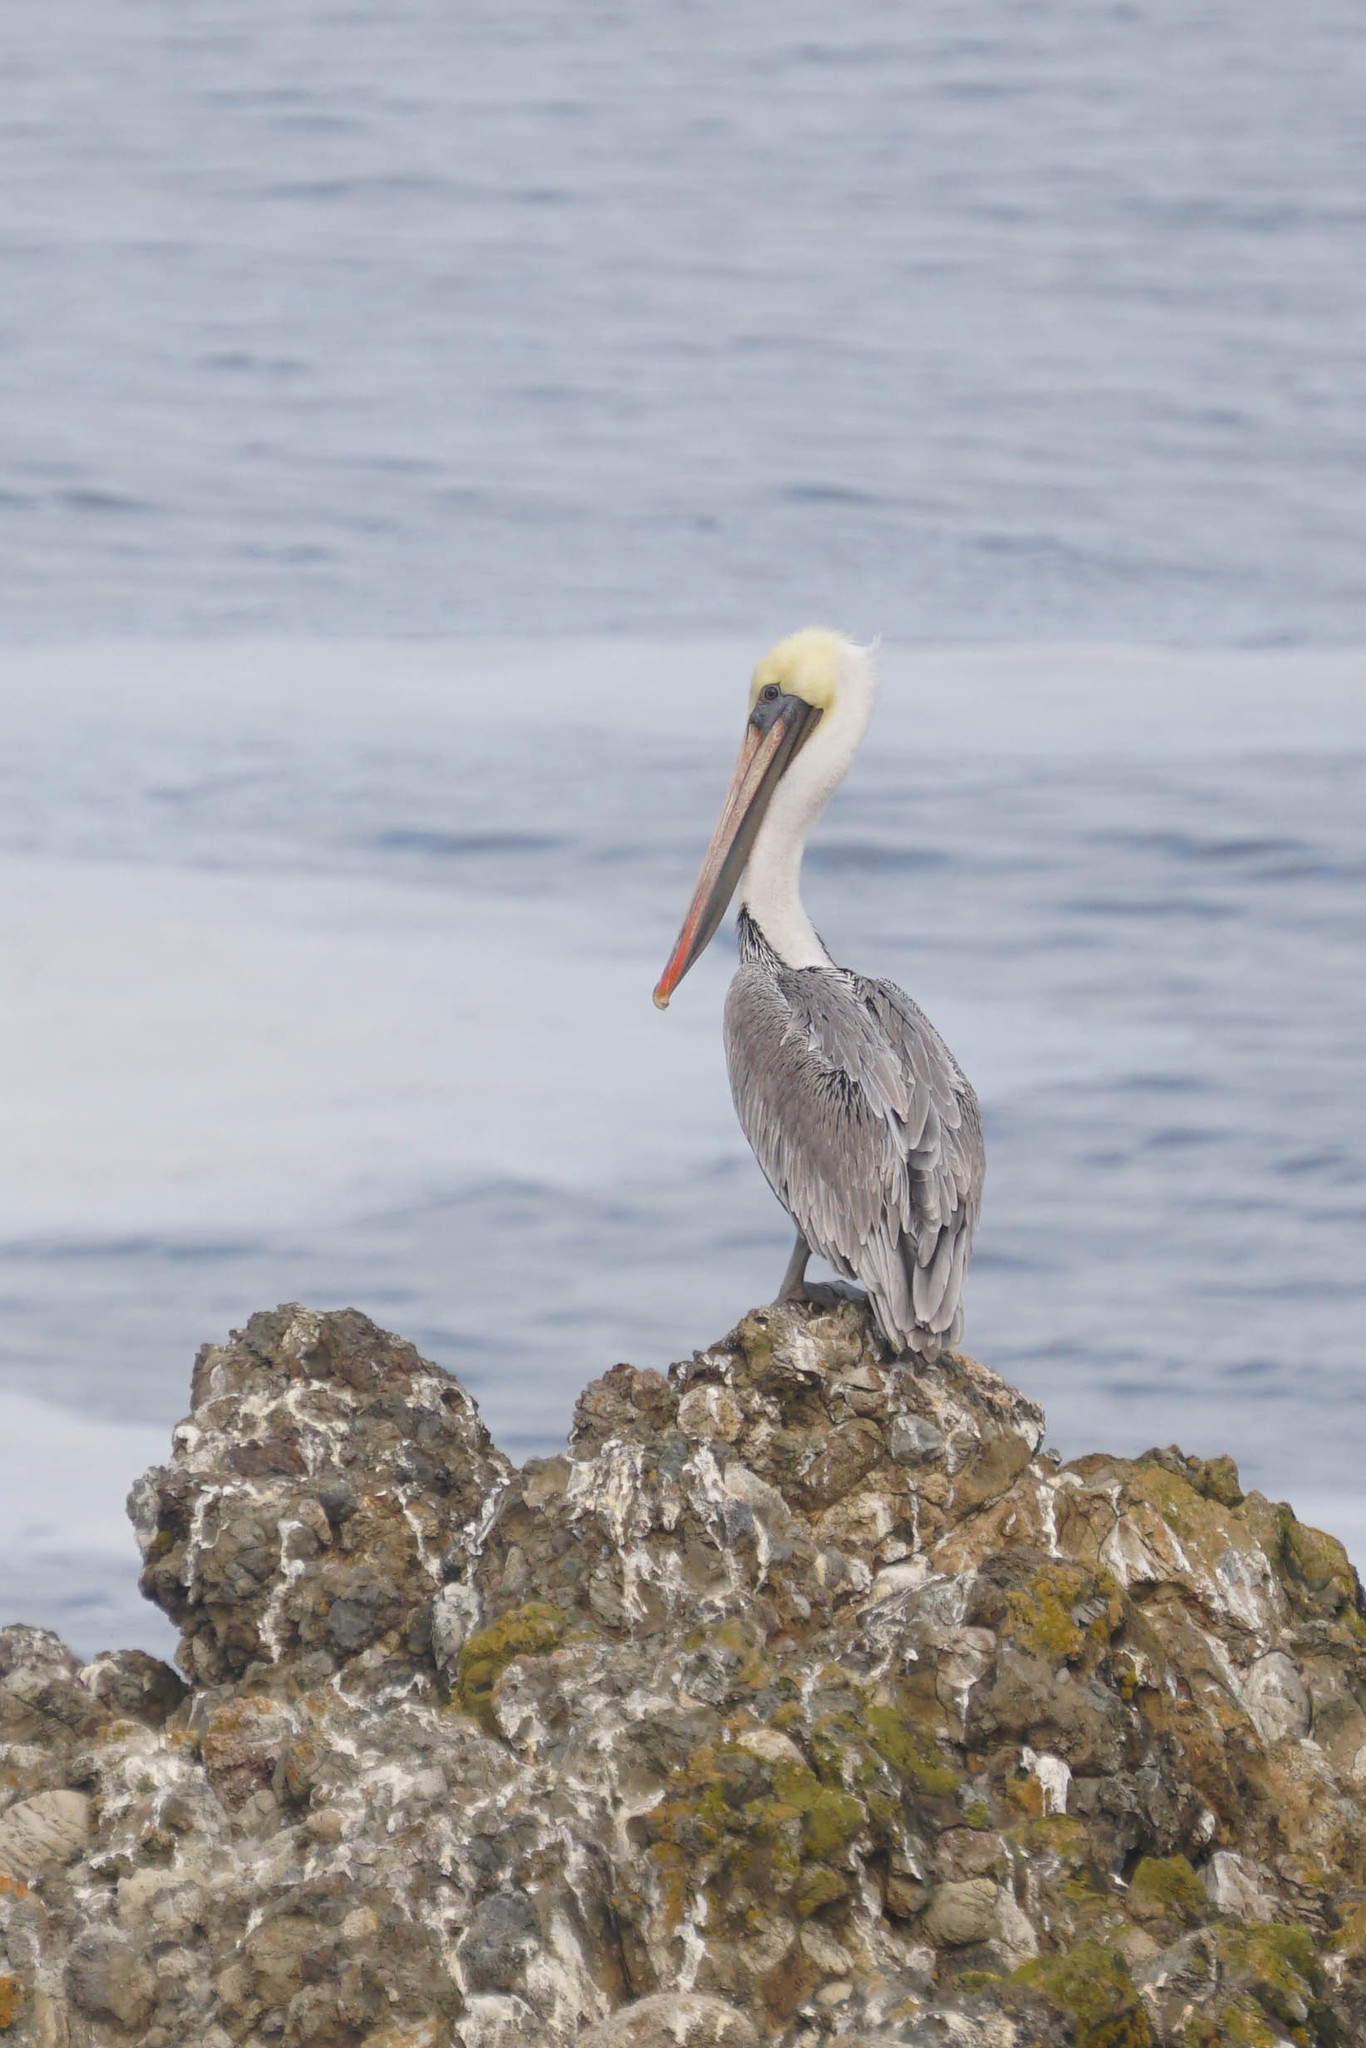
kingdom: Animalia
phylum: Chordata
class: Aves
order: Pelecaniformes
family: Pelecanidae
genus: Pelecanus
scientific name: Pelecanus occidentalis
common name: Brown pelican
